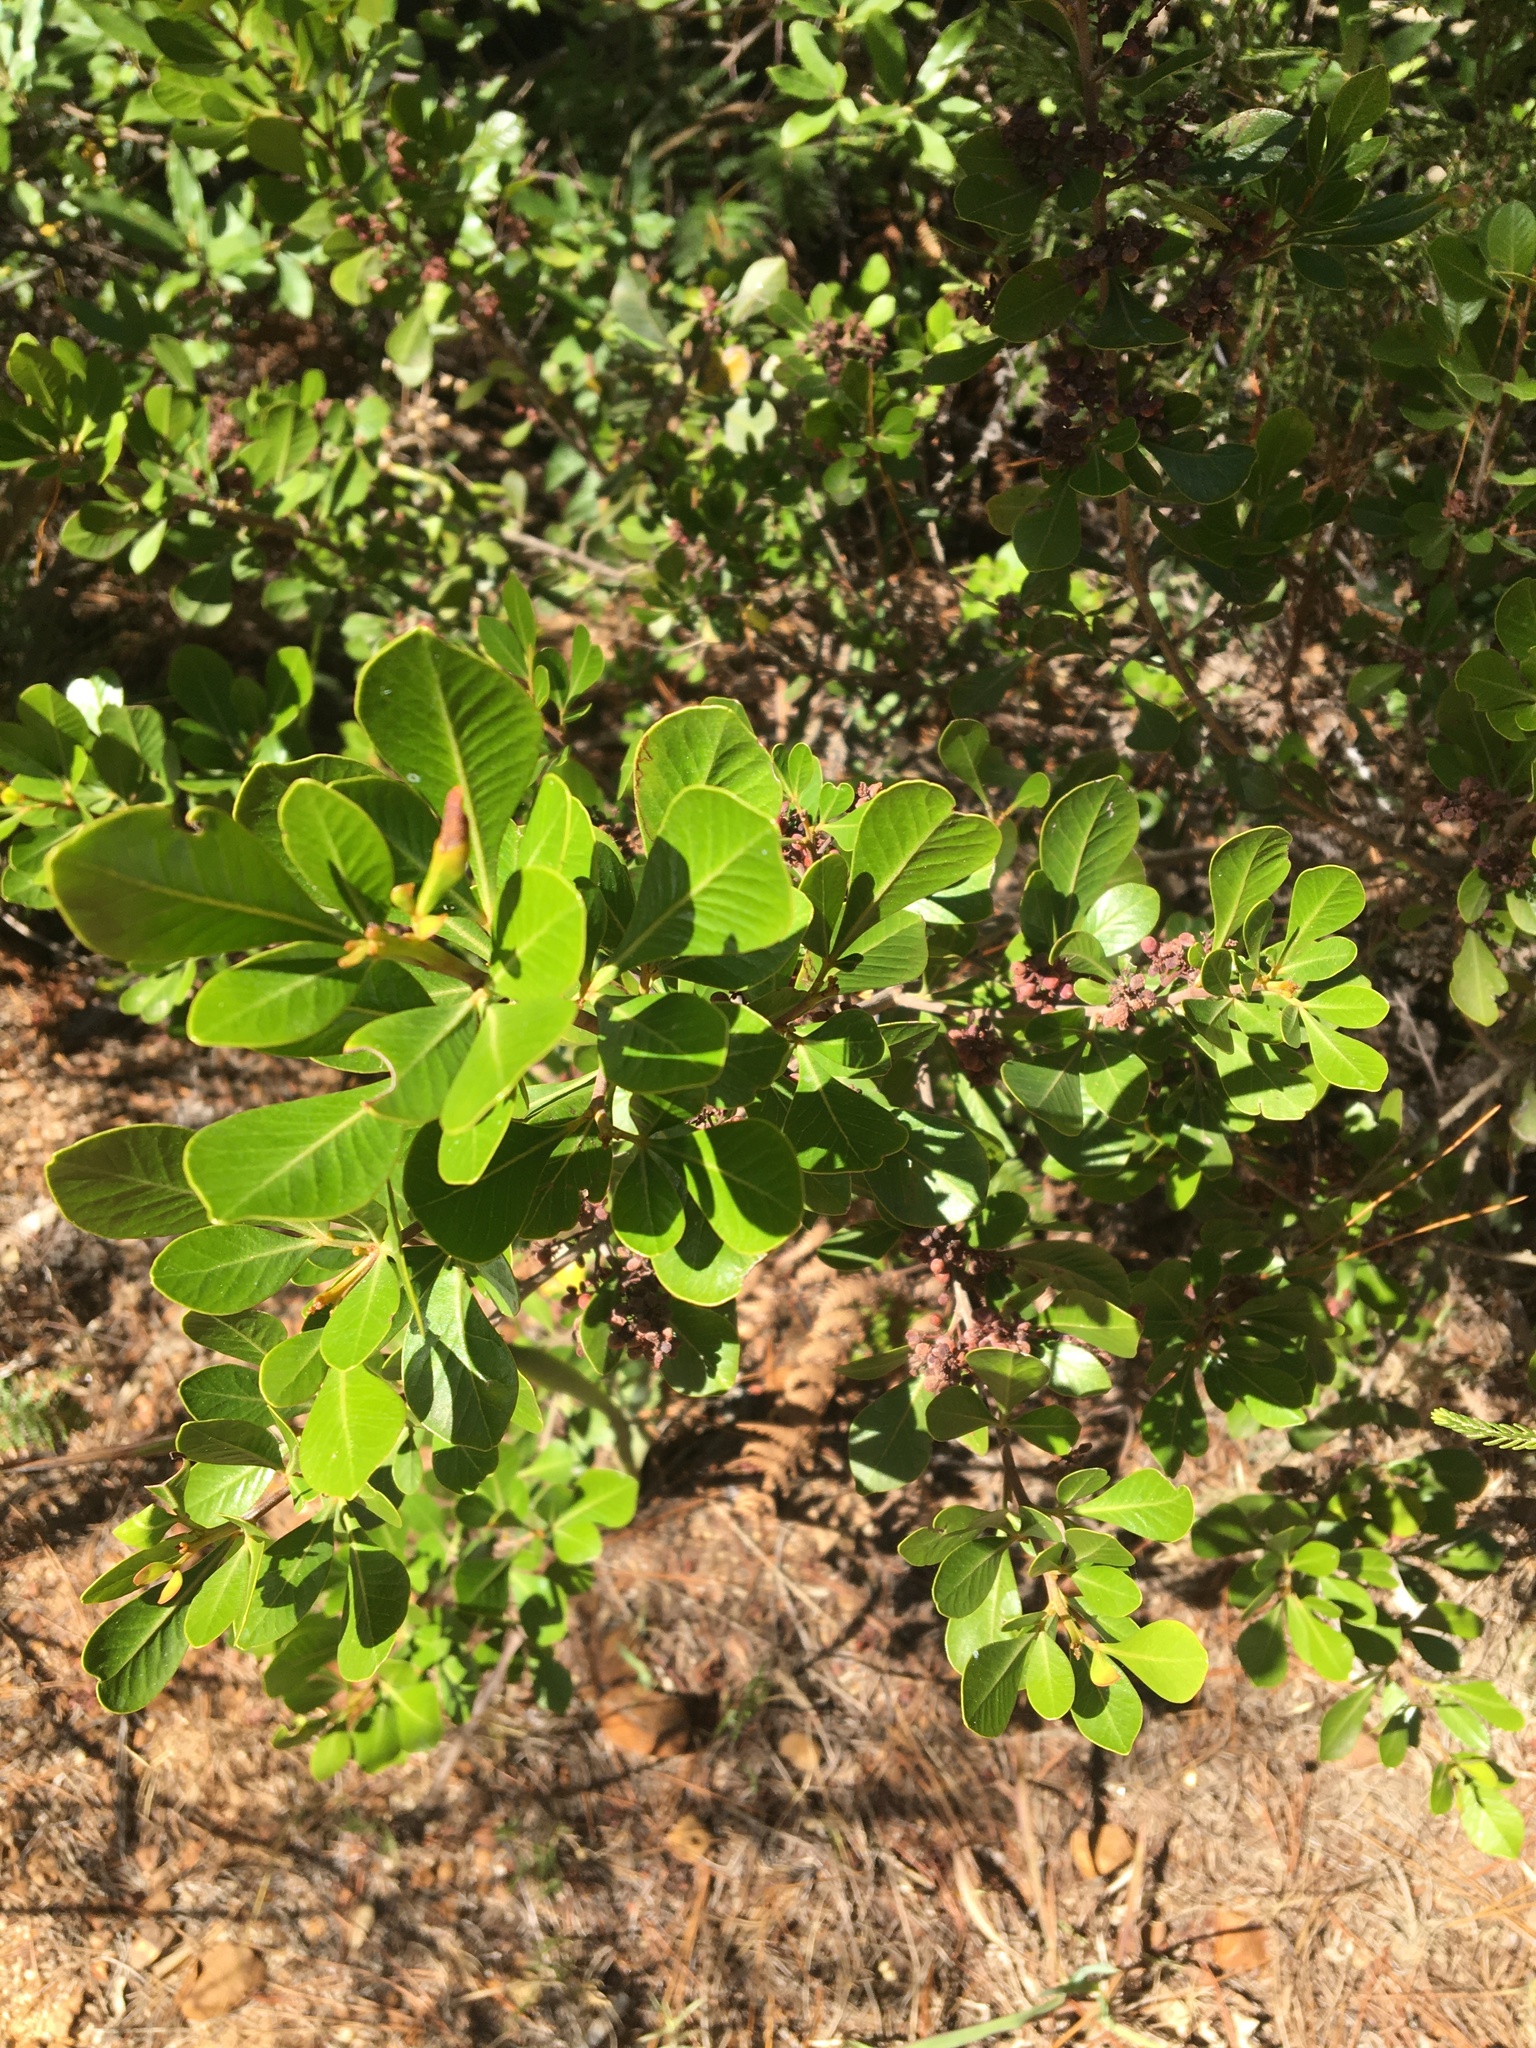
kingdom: Plantae
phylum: Tracheophyta
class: Magnoliopsida
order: Sapindales
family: Anacardiaceae
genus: Searsia
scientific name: Searsia lucida
